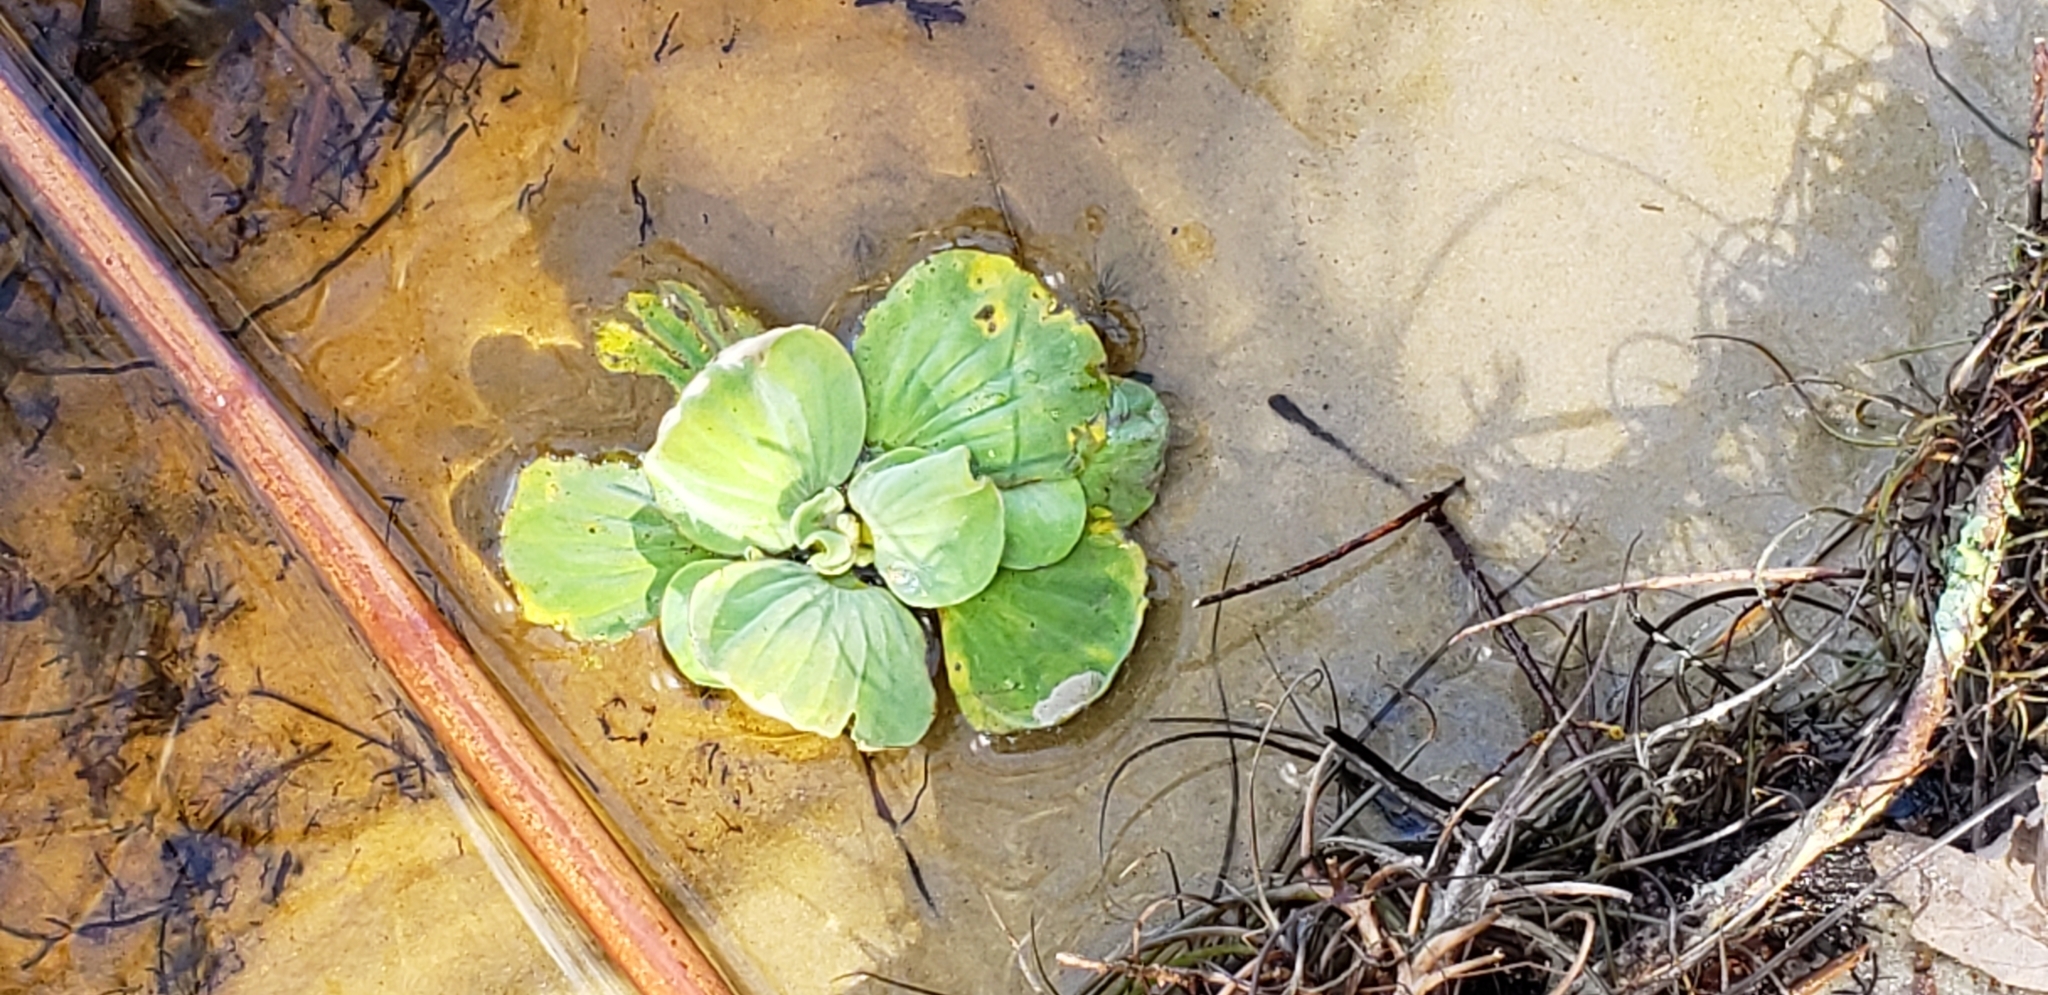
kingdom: Plantae
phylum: Tracheophyta
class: Liliopsida
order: Alismatales
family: Araceae
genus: Pistia
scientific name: Pistia stratiotes
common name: Water lettuce
